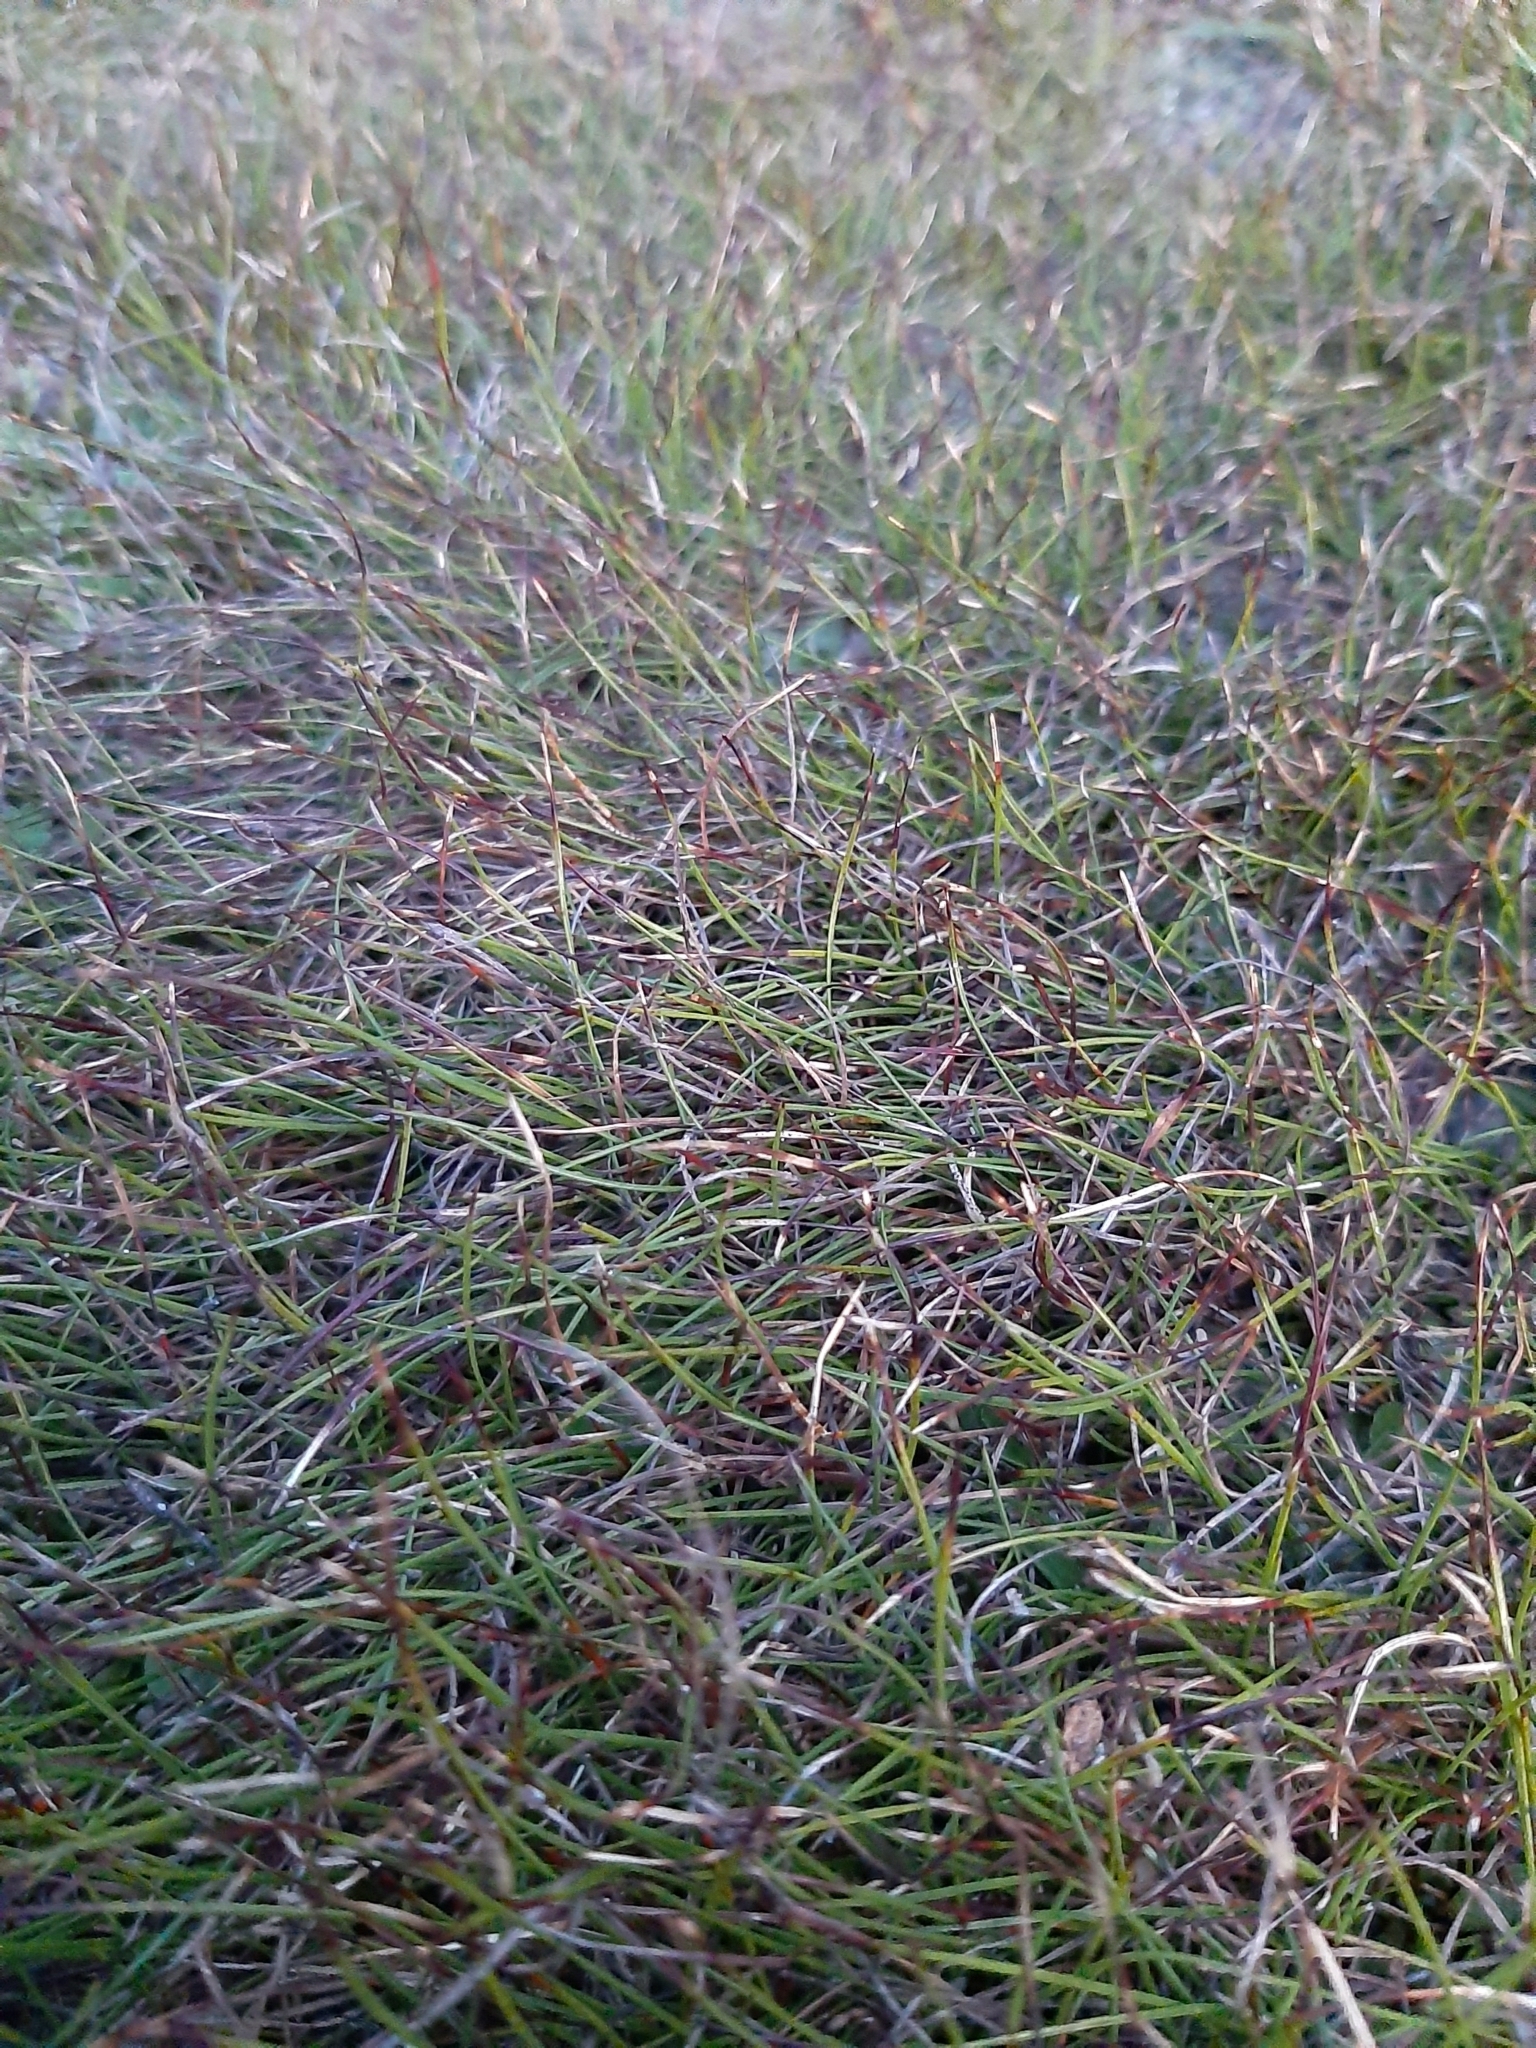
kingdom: Plantae
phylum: Tracheophyta
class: Liliopsida
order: Poales
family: Cyperaceae
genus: Schoenus
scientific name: Schoenus nitens
